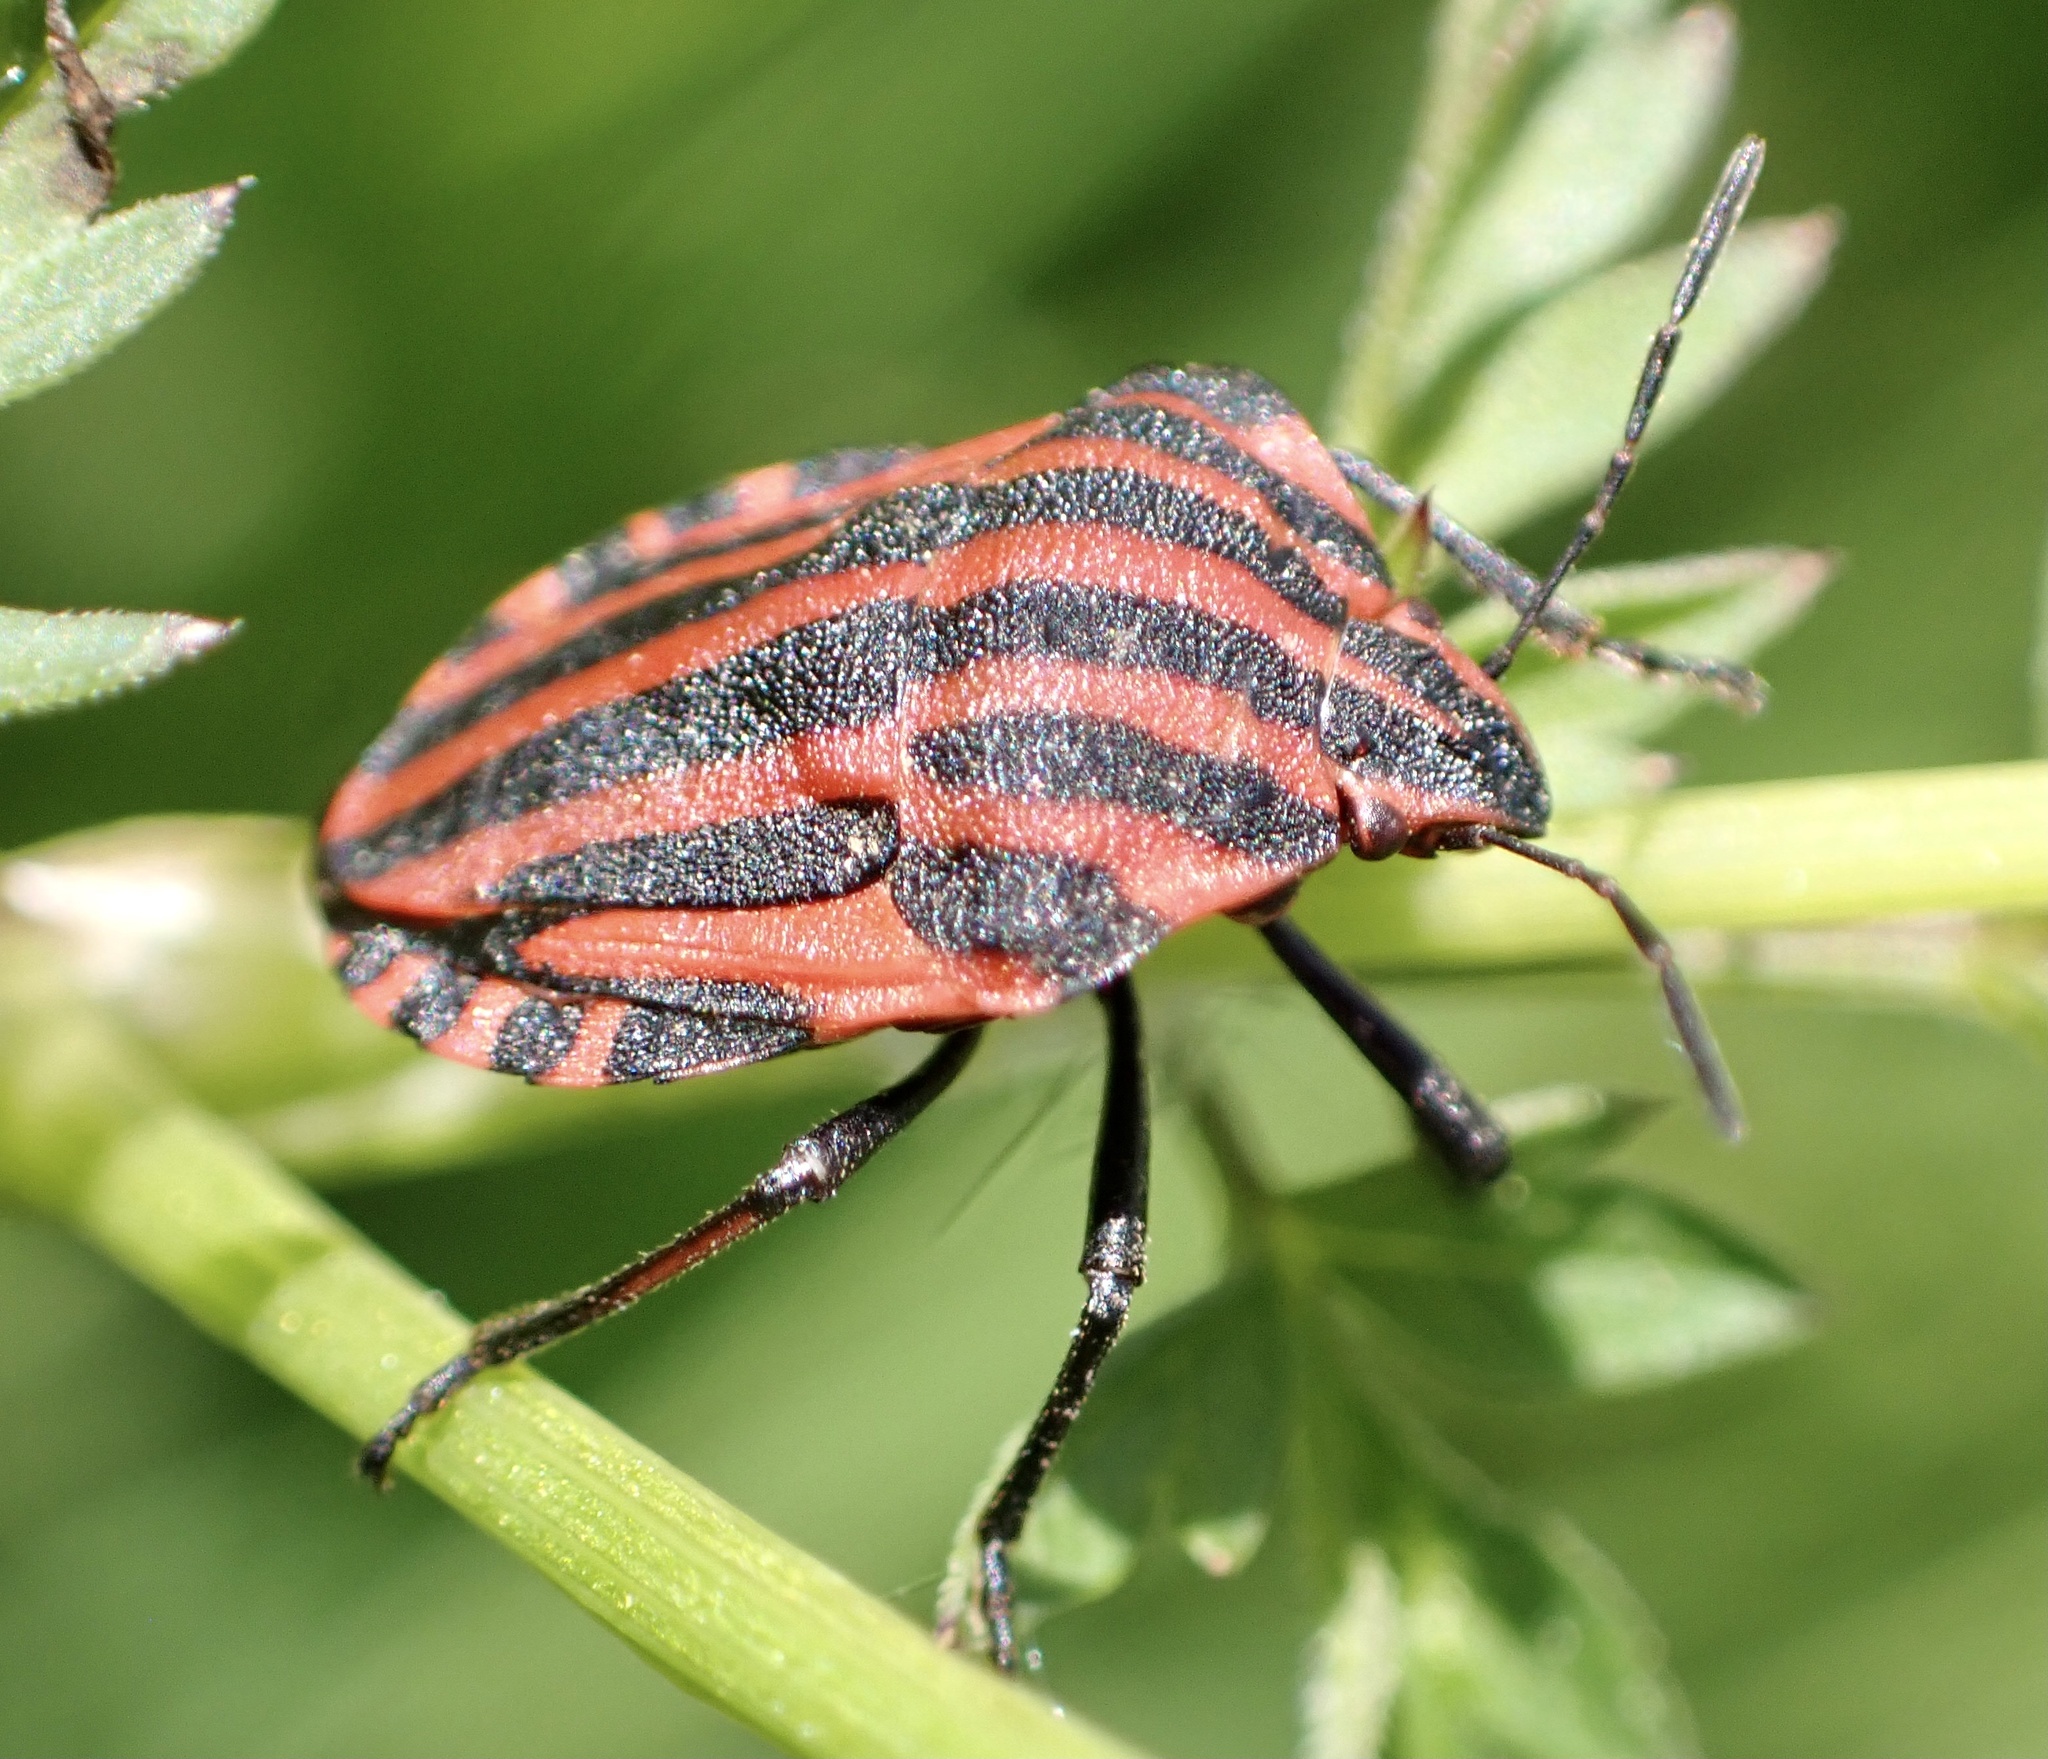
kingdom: Animalia
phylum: Arthropoda
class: Insecta
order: Hemiptera
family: Pentatomidae
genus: Graphosoma
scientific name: Graphosoma italicum
